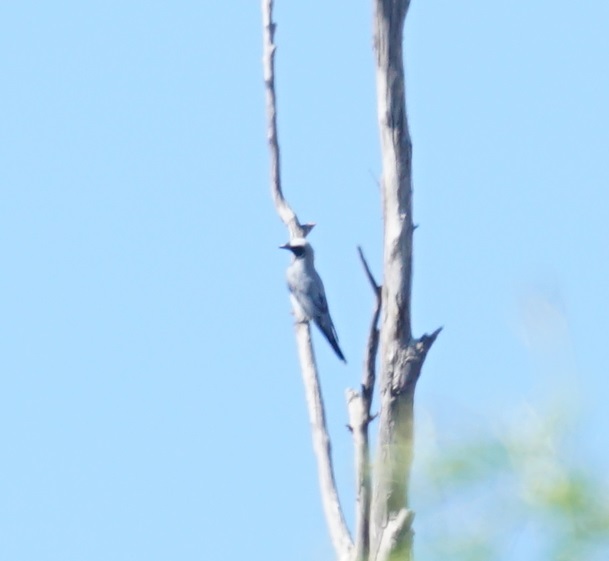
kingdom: Animalia
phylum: Chordata
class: Aves
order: Passeriformes
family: Campephagidae
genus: Coracina
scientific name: Coracina novaehollandiae
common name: Black-faced cuckooshrike
